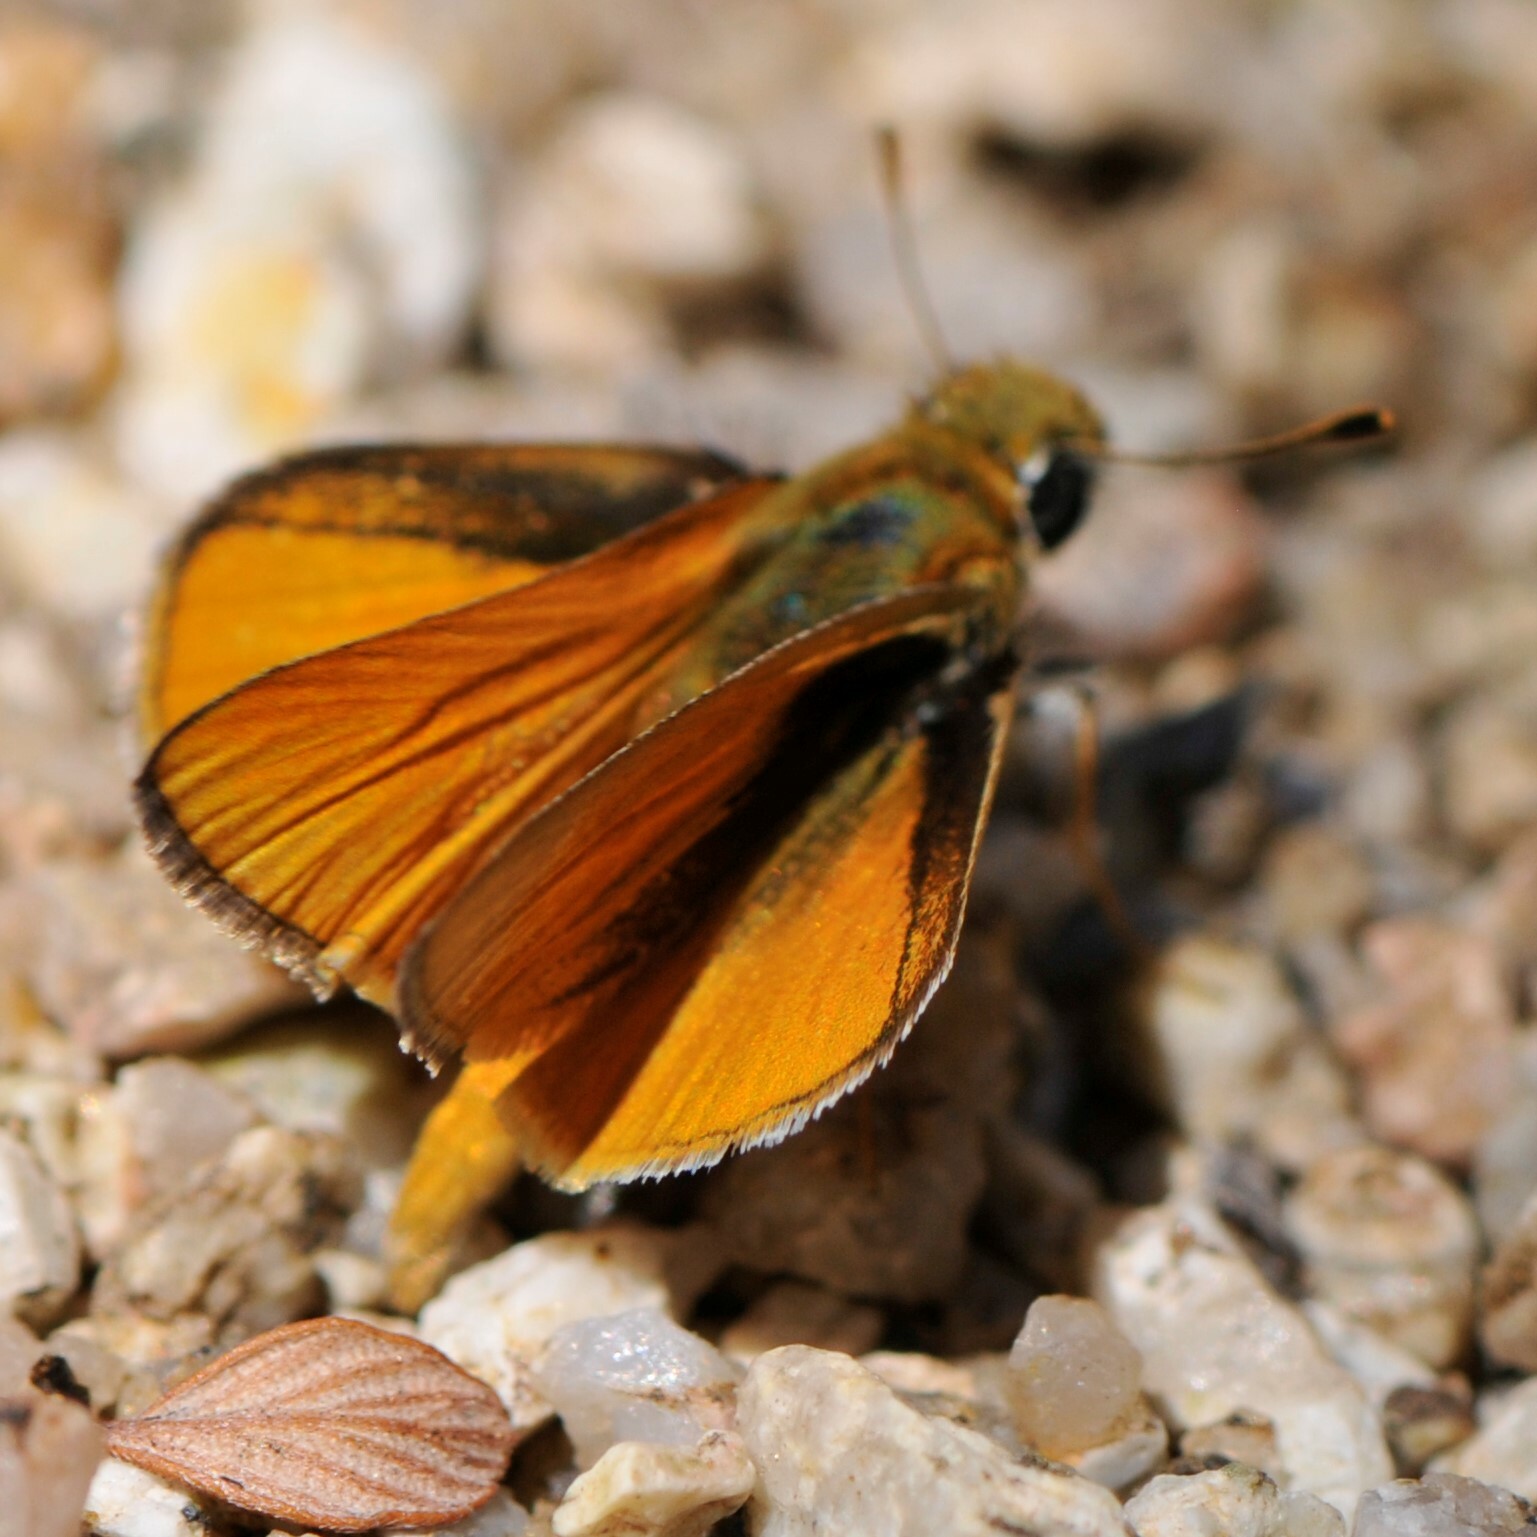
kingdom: Animalia
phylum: Arthropoda
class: Insecta
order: Lepidoptera
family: Hesperiidae
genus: Copaeodes
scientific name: Copaeodes aurantiaca
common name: Orange skipperling
